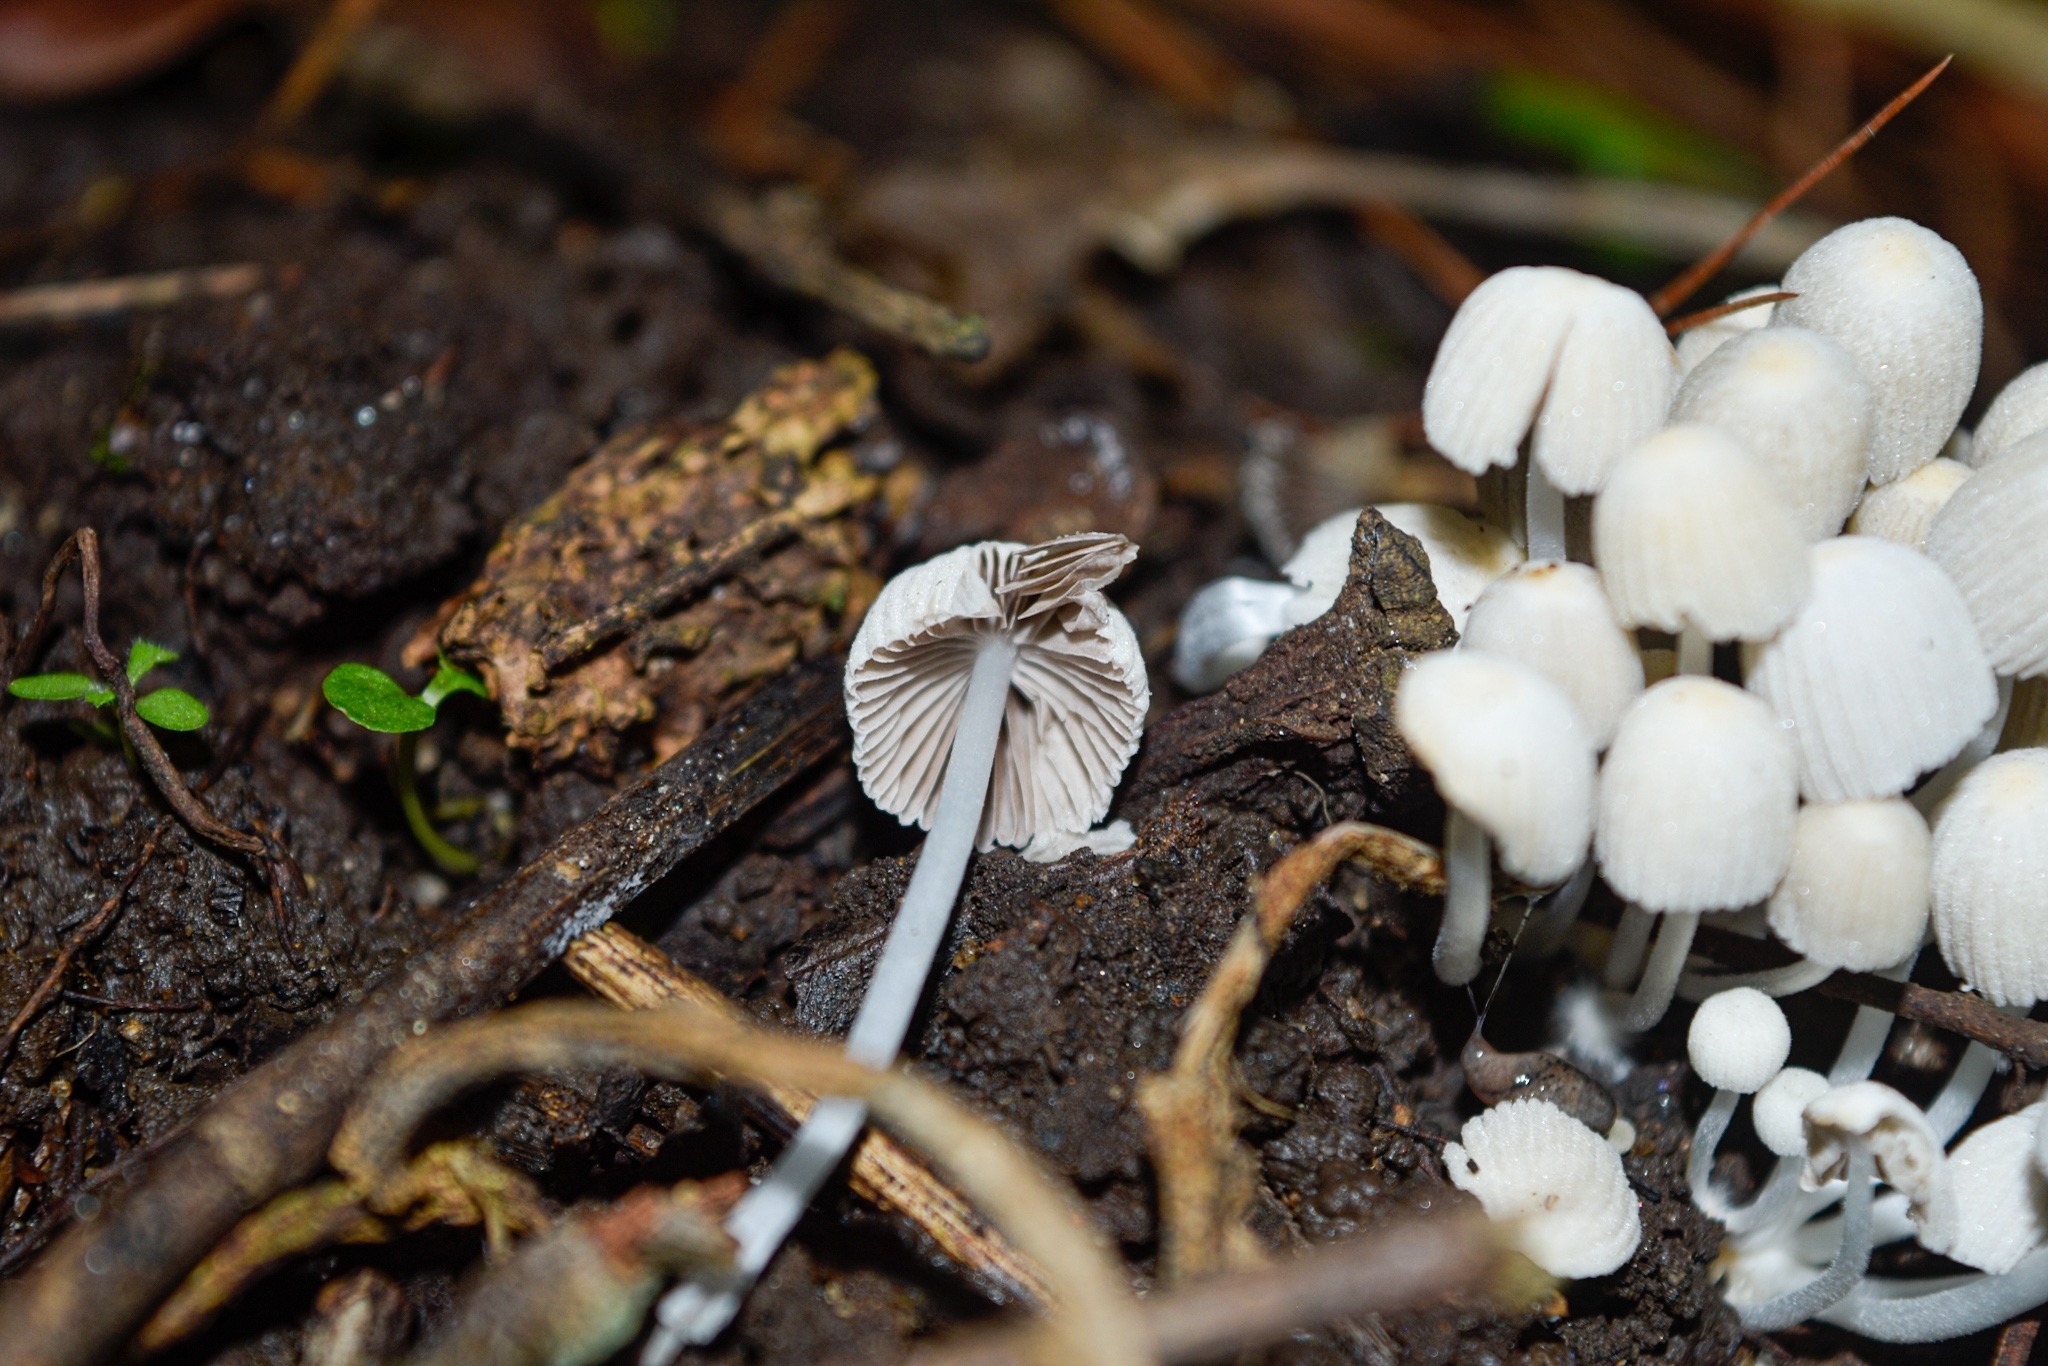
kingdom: Fungi
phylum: Basidiomycota
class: Agaricomycetes
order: Agaricales
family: Psathyrellaceae
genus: Coprinellus
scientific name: Coprinellus disseminatus
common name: Fairies' bonnets
